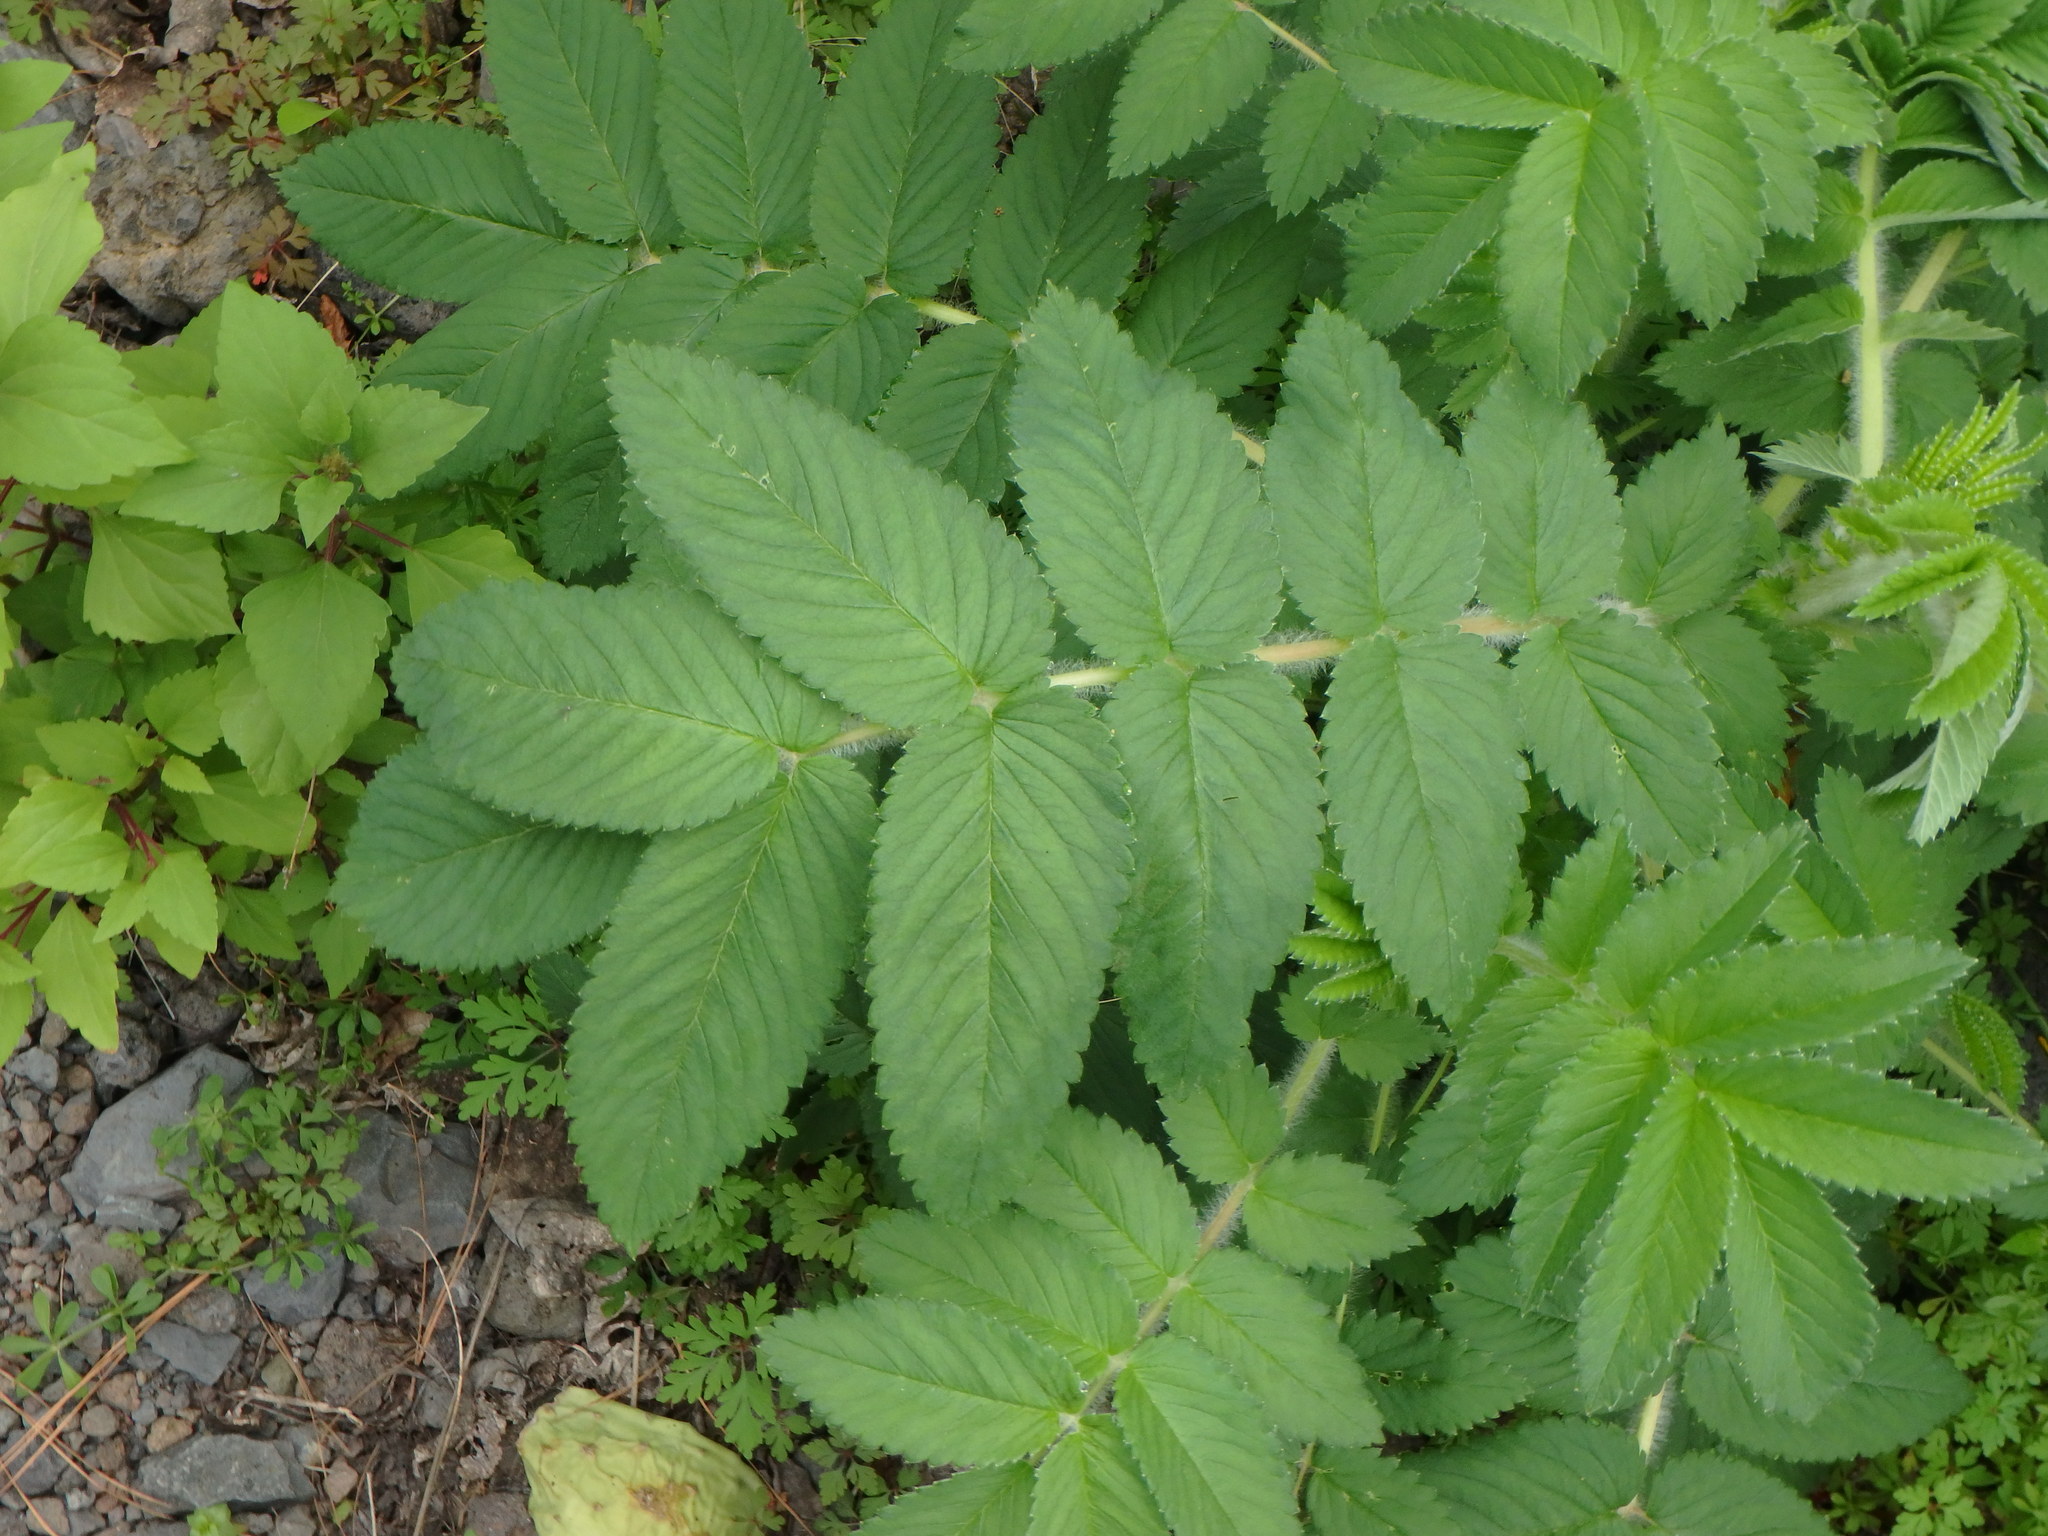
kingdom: Plantae
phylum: Tracheophyta
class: Magnoliopsida
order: Rosales
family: Rosaceae
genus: Bencomia
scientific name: Bencomia caudata
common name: Bencomia
